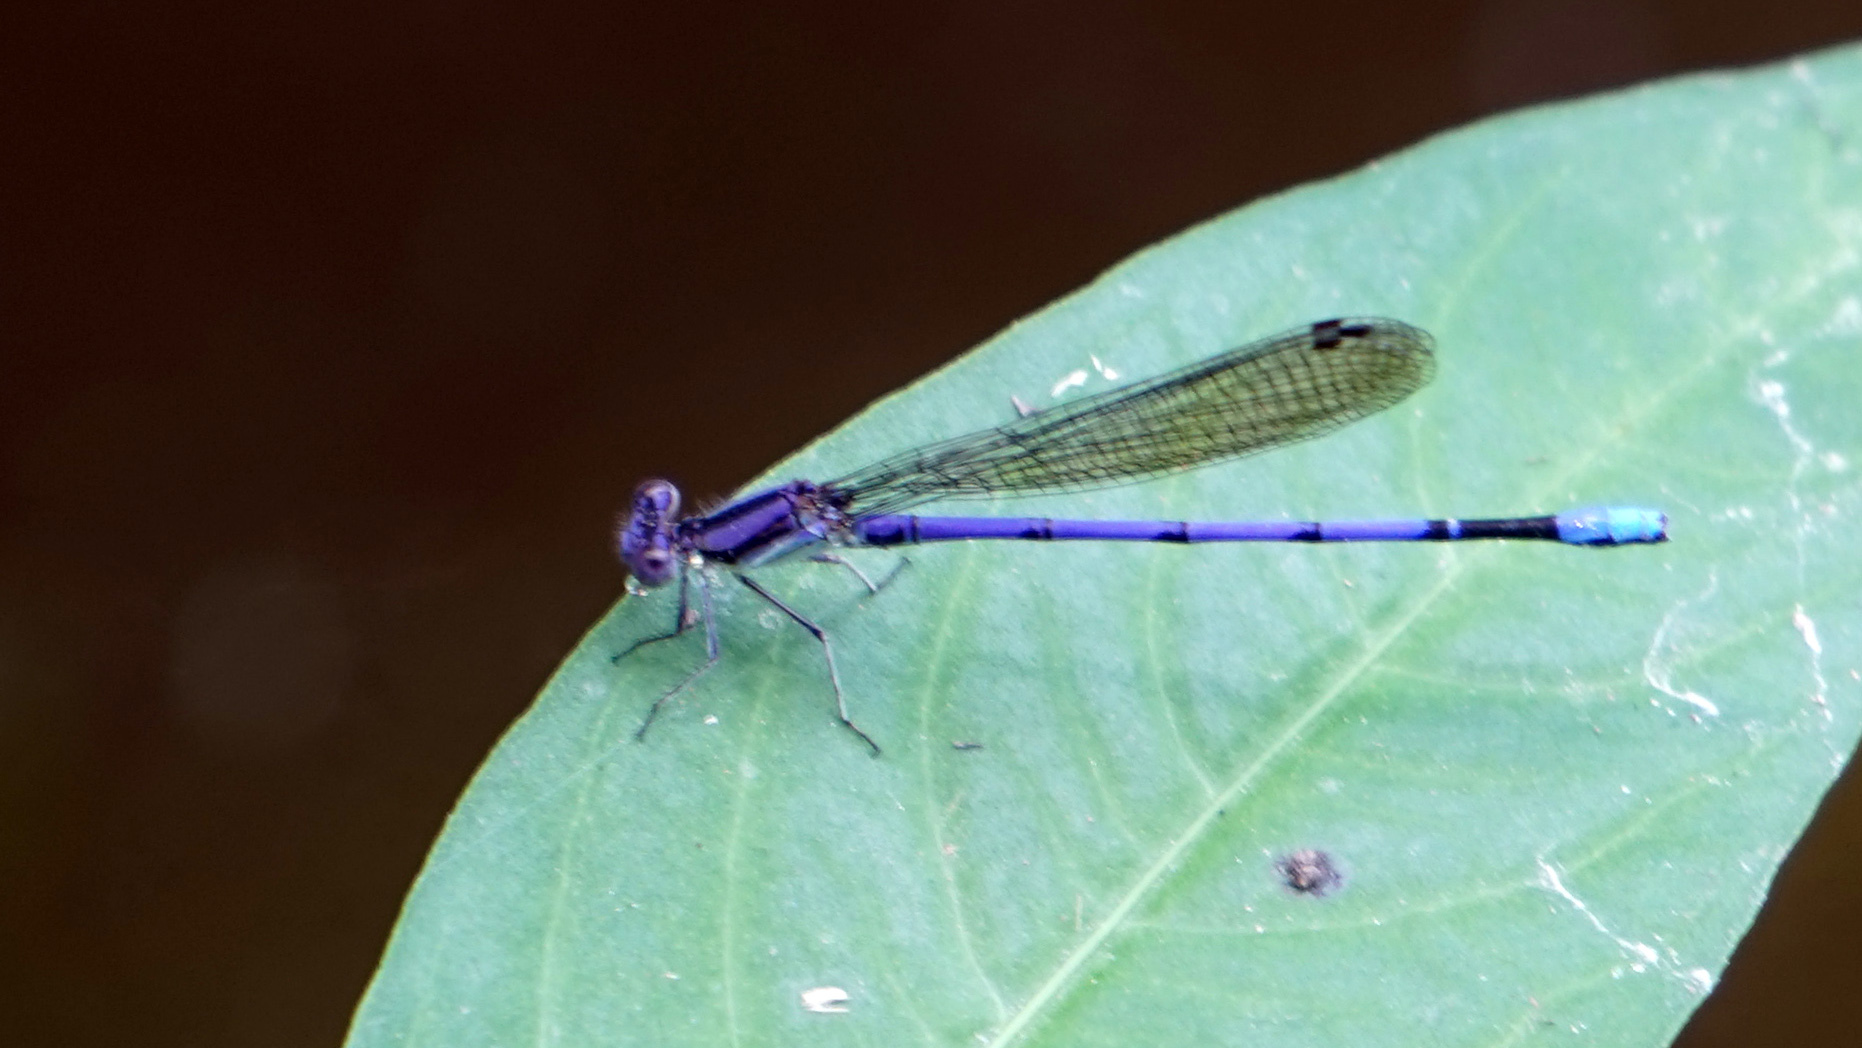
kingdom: Animalia
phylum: Arthropoda
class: Insecta
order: Odonata
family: Coenagrionidae
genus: Argia
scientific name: Argia fumipennis
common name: Variable dancer
